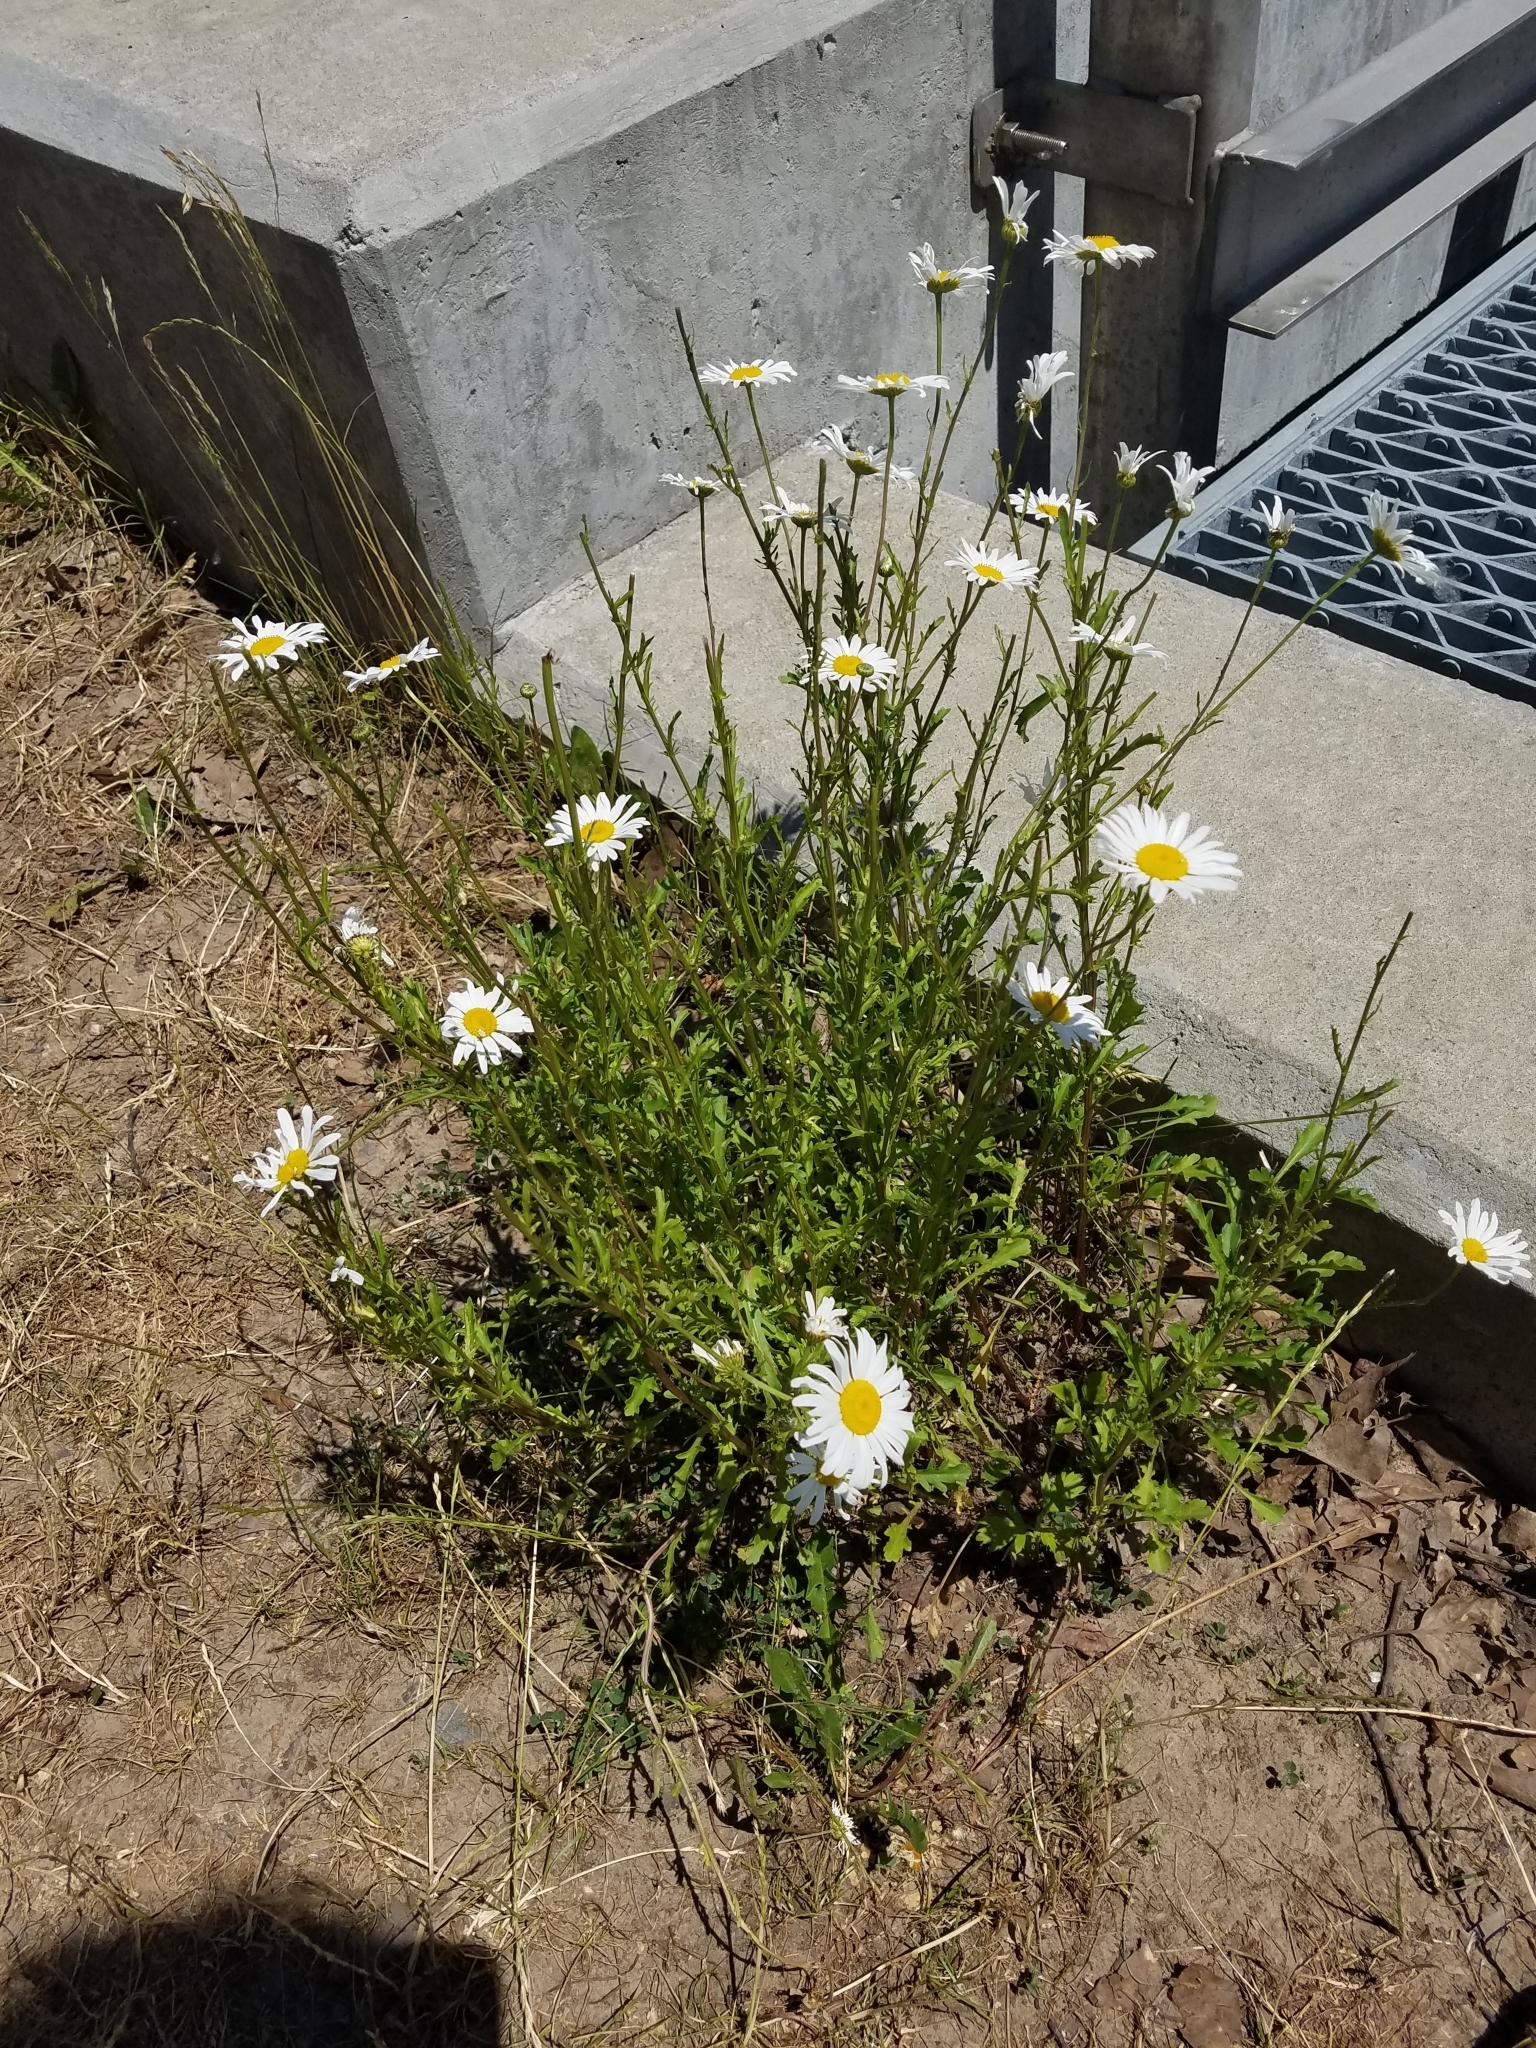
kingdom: Plantae
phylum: Tracheophyta
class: Magnoliopsida
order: Asterales
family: Asteraceae
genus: Leucanthemum
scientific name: Leucanthemum vulgare
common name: Oxeye daisy
